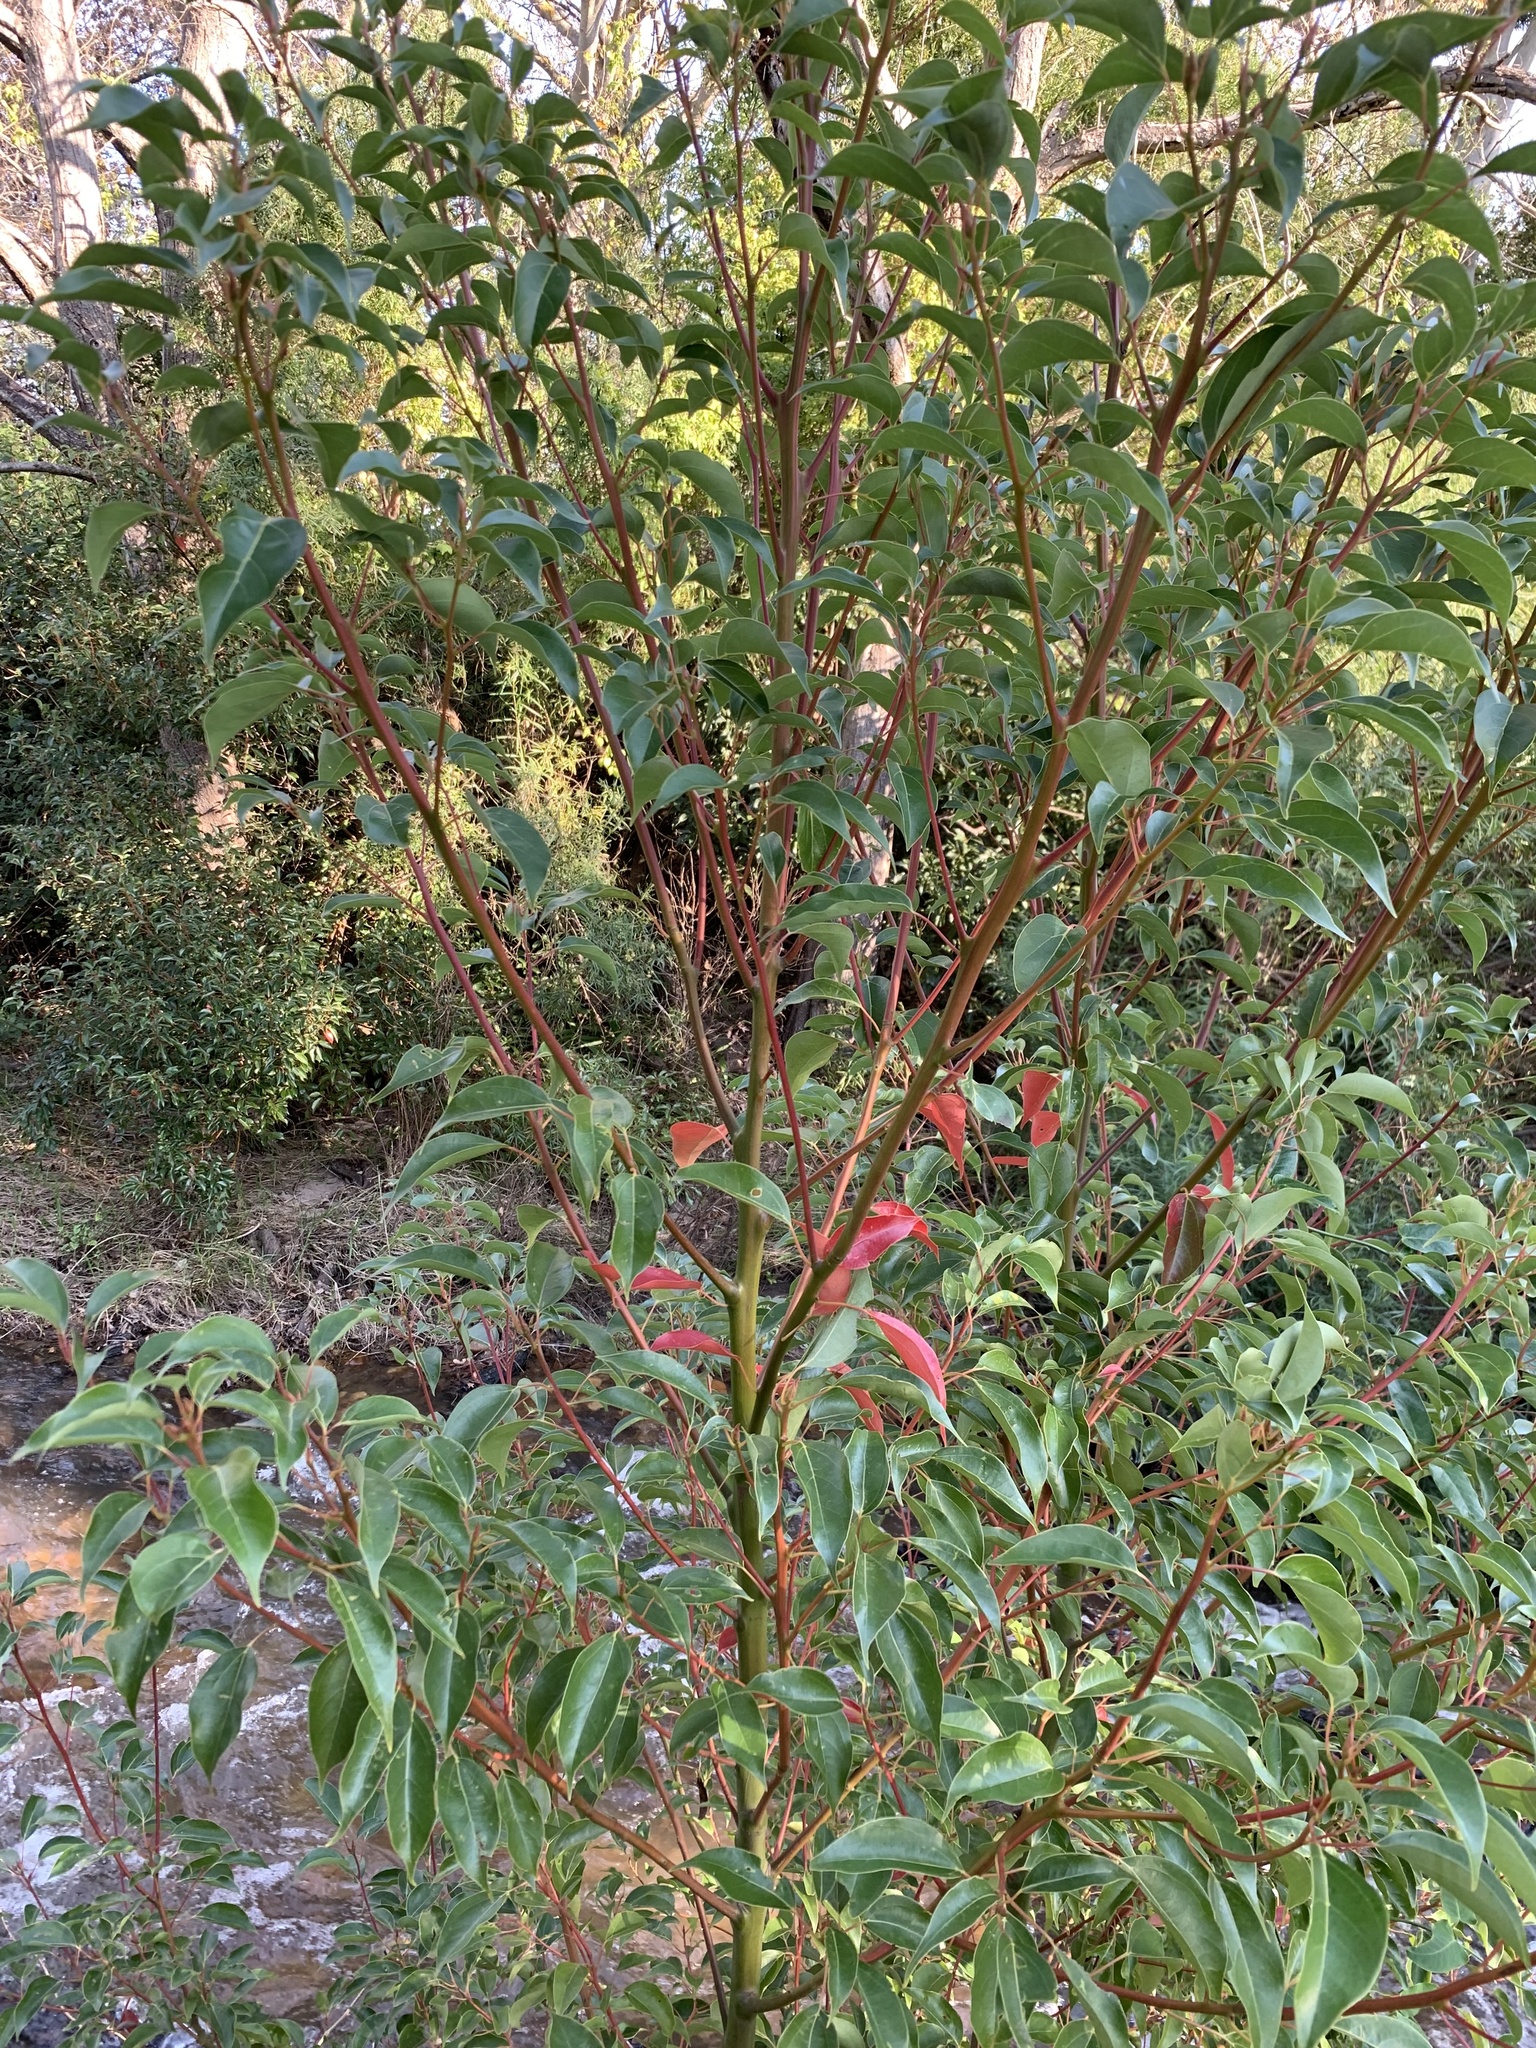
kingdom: Plantae
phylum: Tracheophyta
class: Magnoliopsida
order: Laurales
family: Lauraceae
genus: Cinnamomum
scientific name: Cinnamomum camphora
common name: Camphortree
